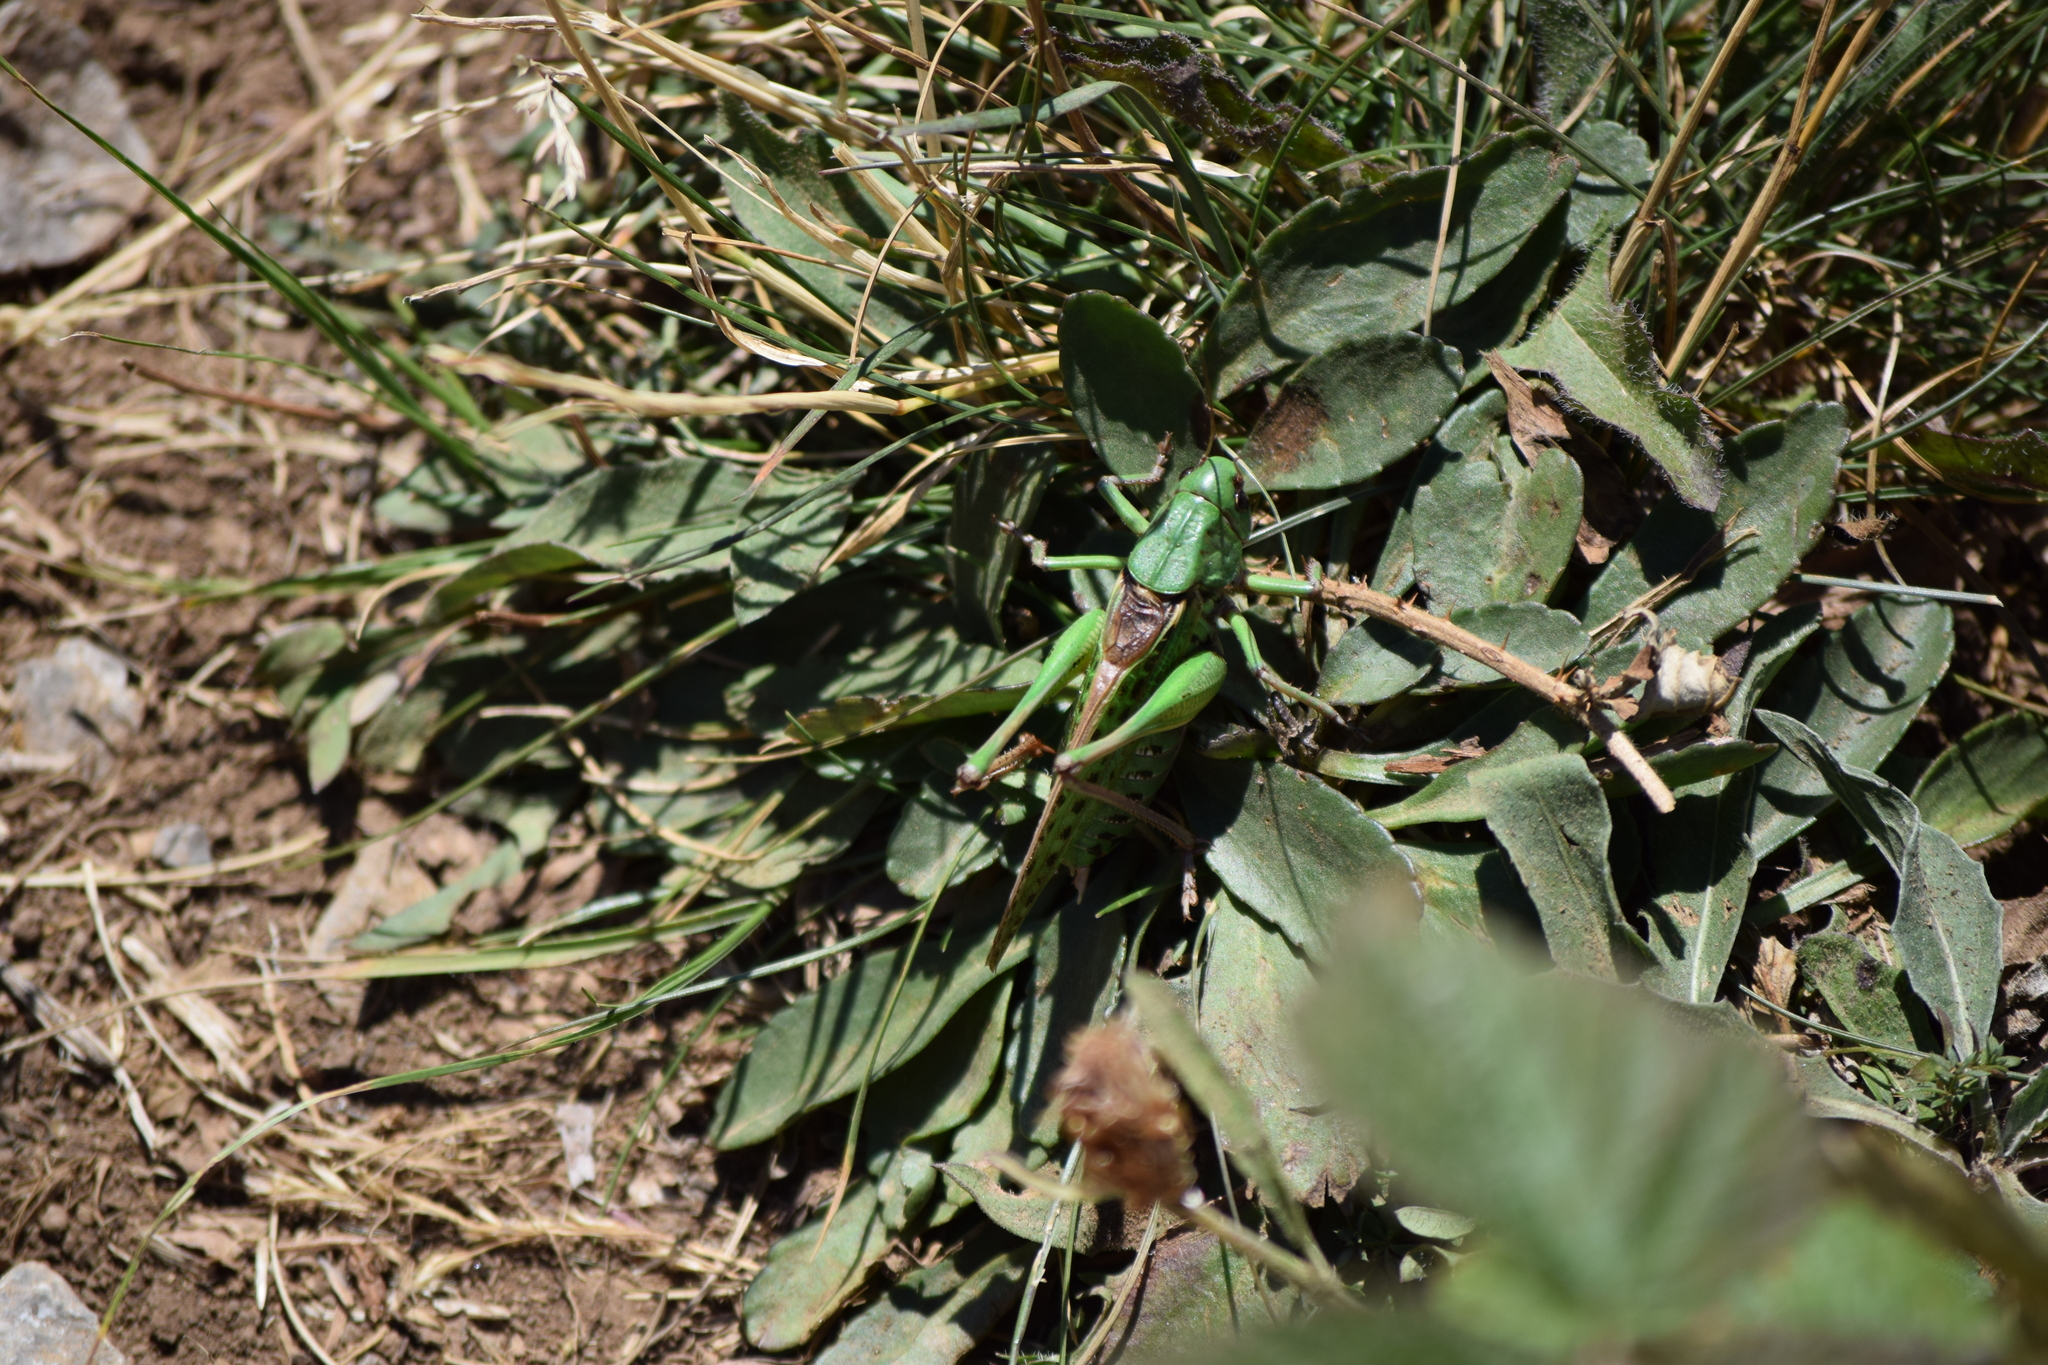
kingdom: Animalia
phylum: Arthropoda
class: Insecta
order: Orthoptera
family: Tettigoniidae
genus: Decticus
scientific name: Decticus verrucivorus
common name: Wart-biter
